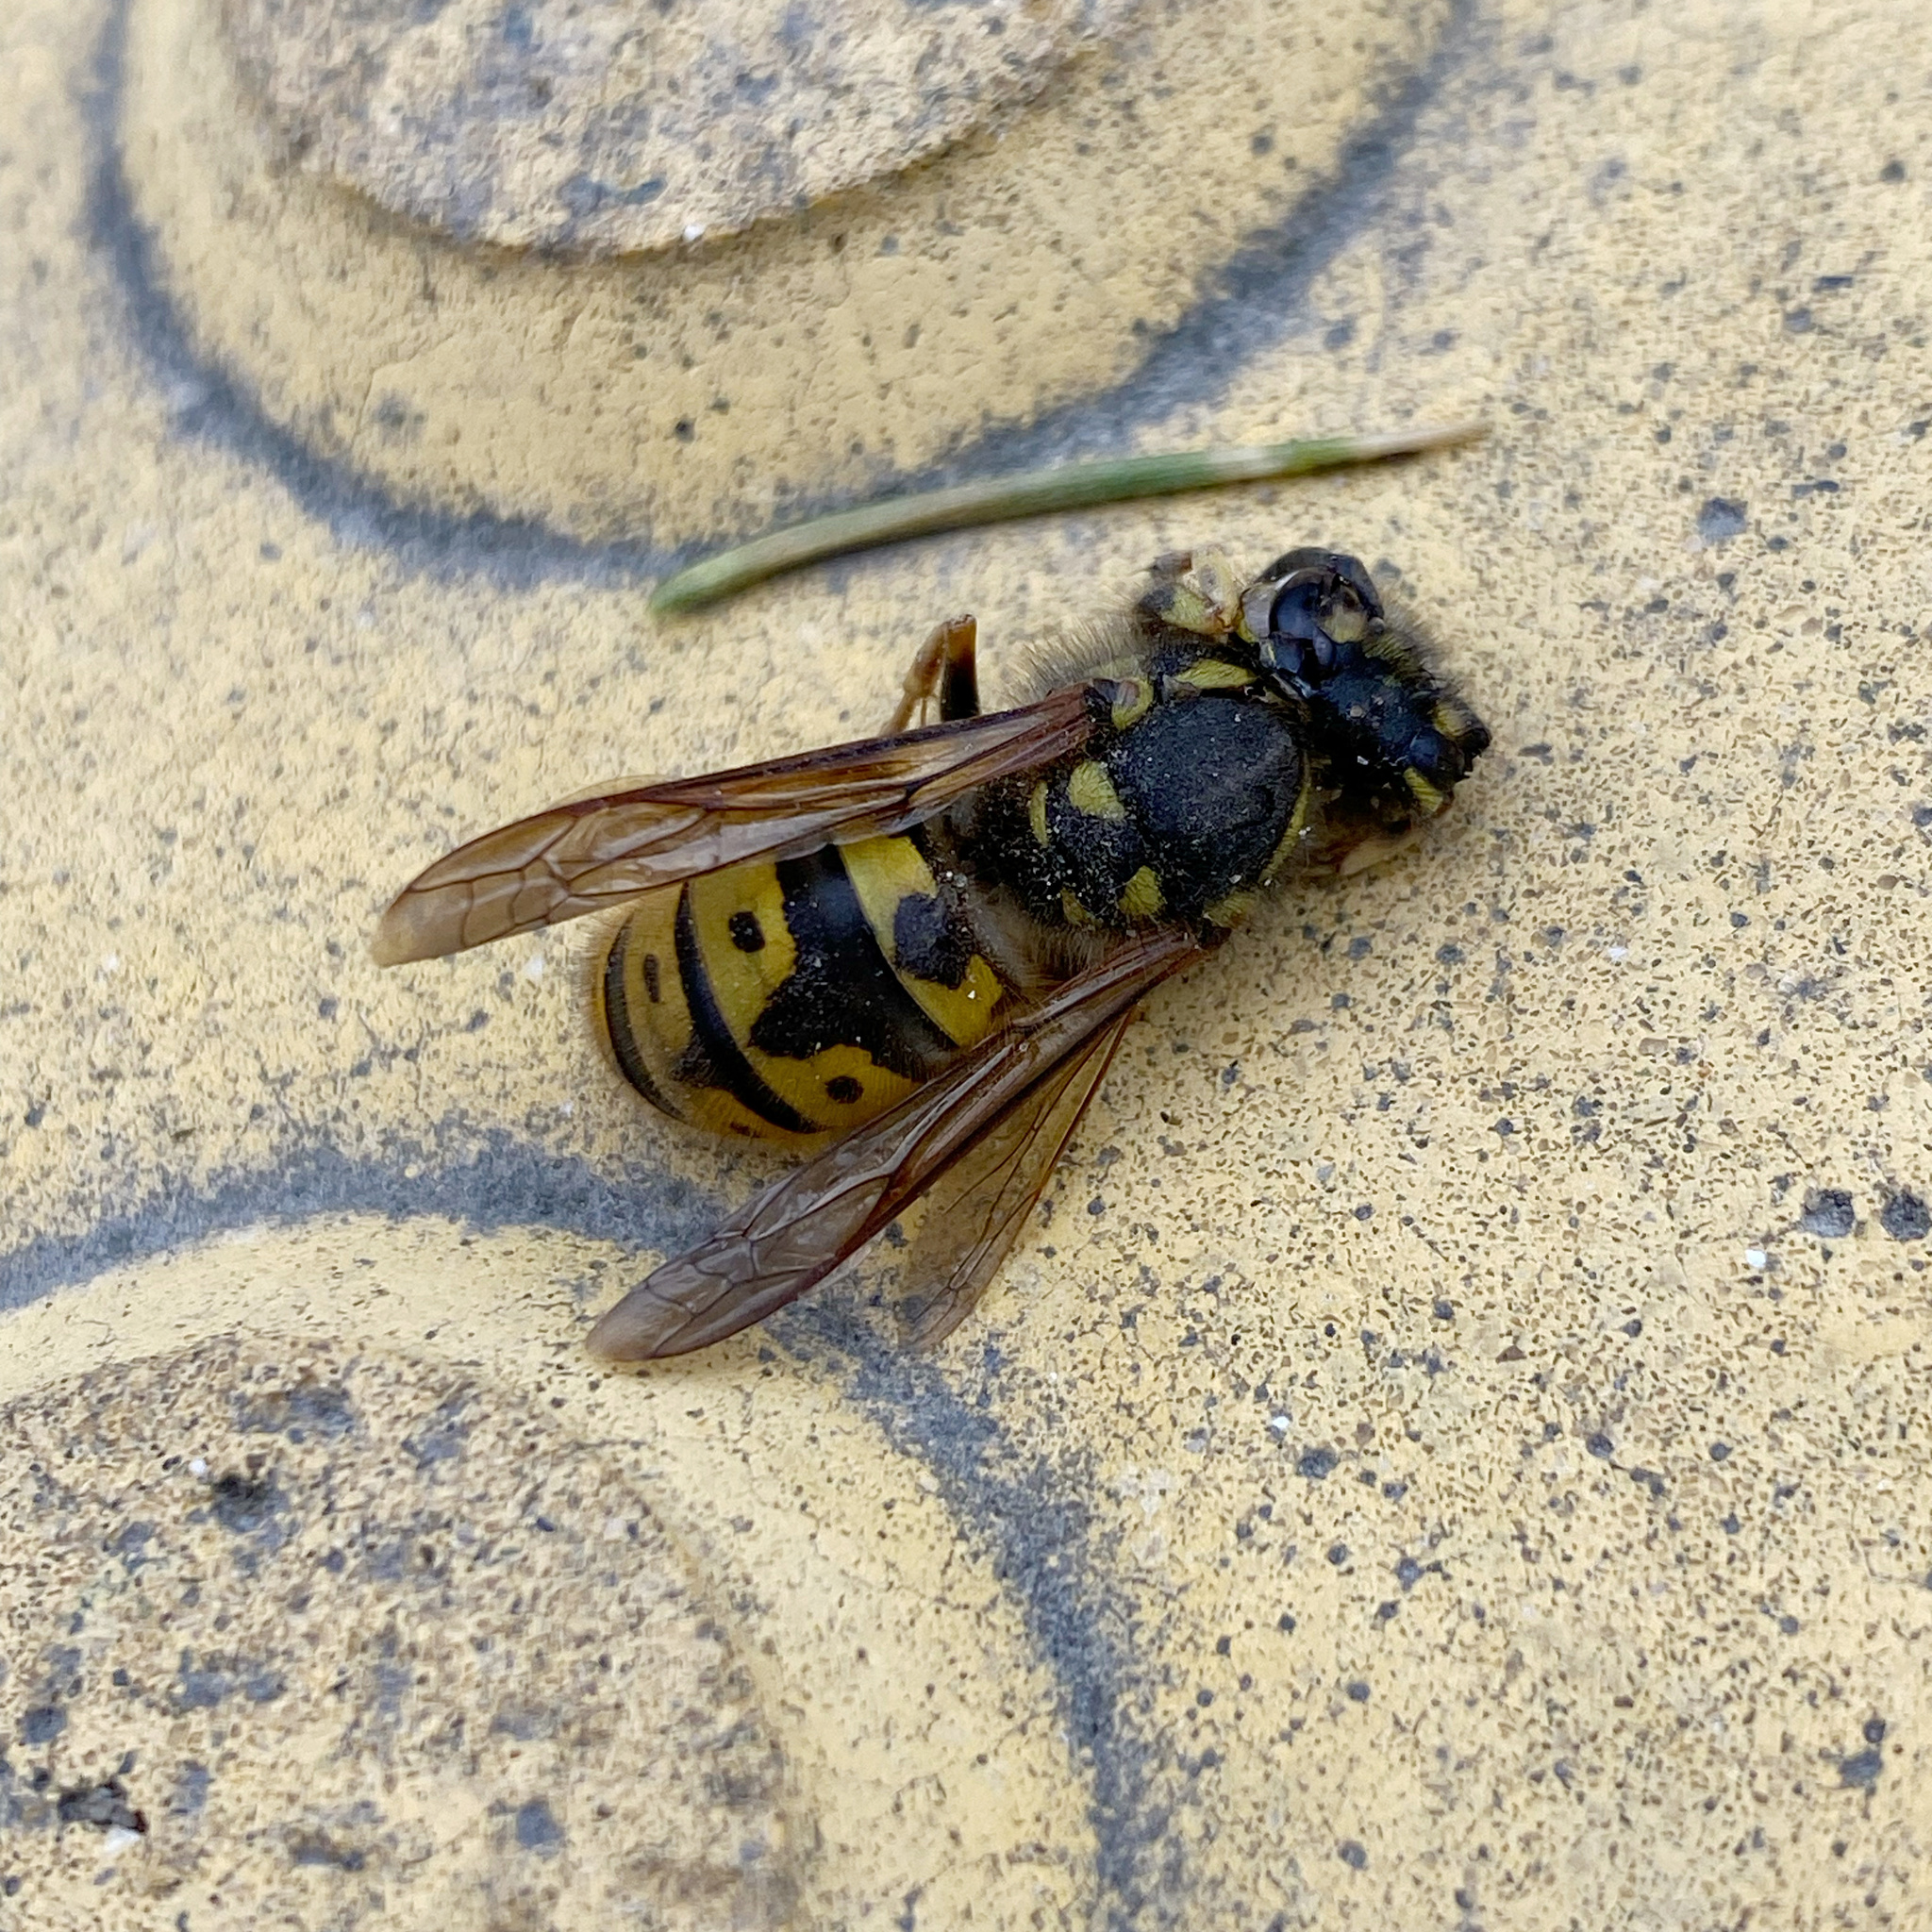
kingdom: Animalia
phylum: Arthropoda
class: Insecta
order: Hymenoptera
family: Vespidae
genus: Vespula
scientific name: Vespula germanica
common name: German wasp
